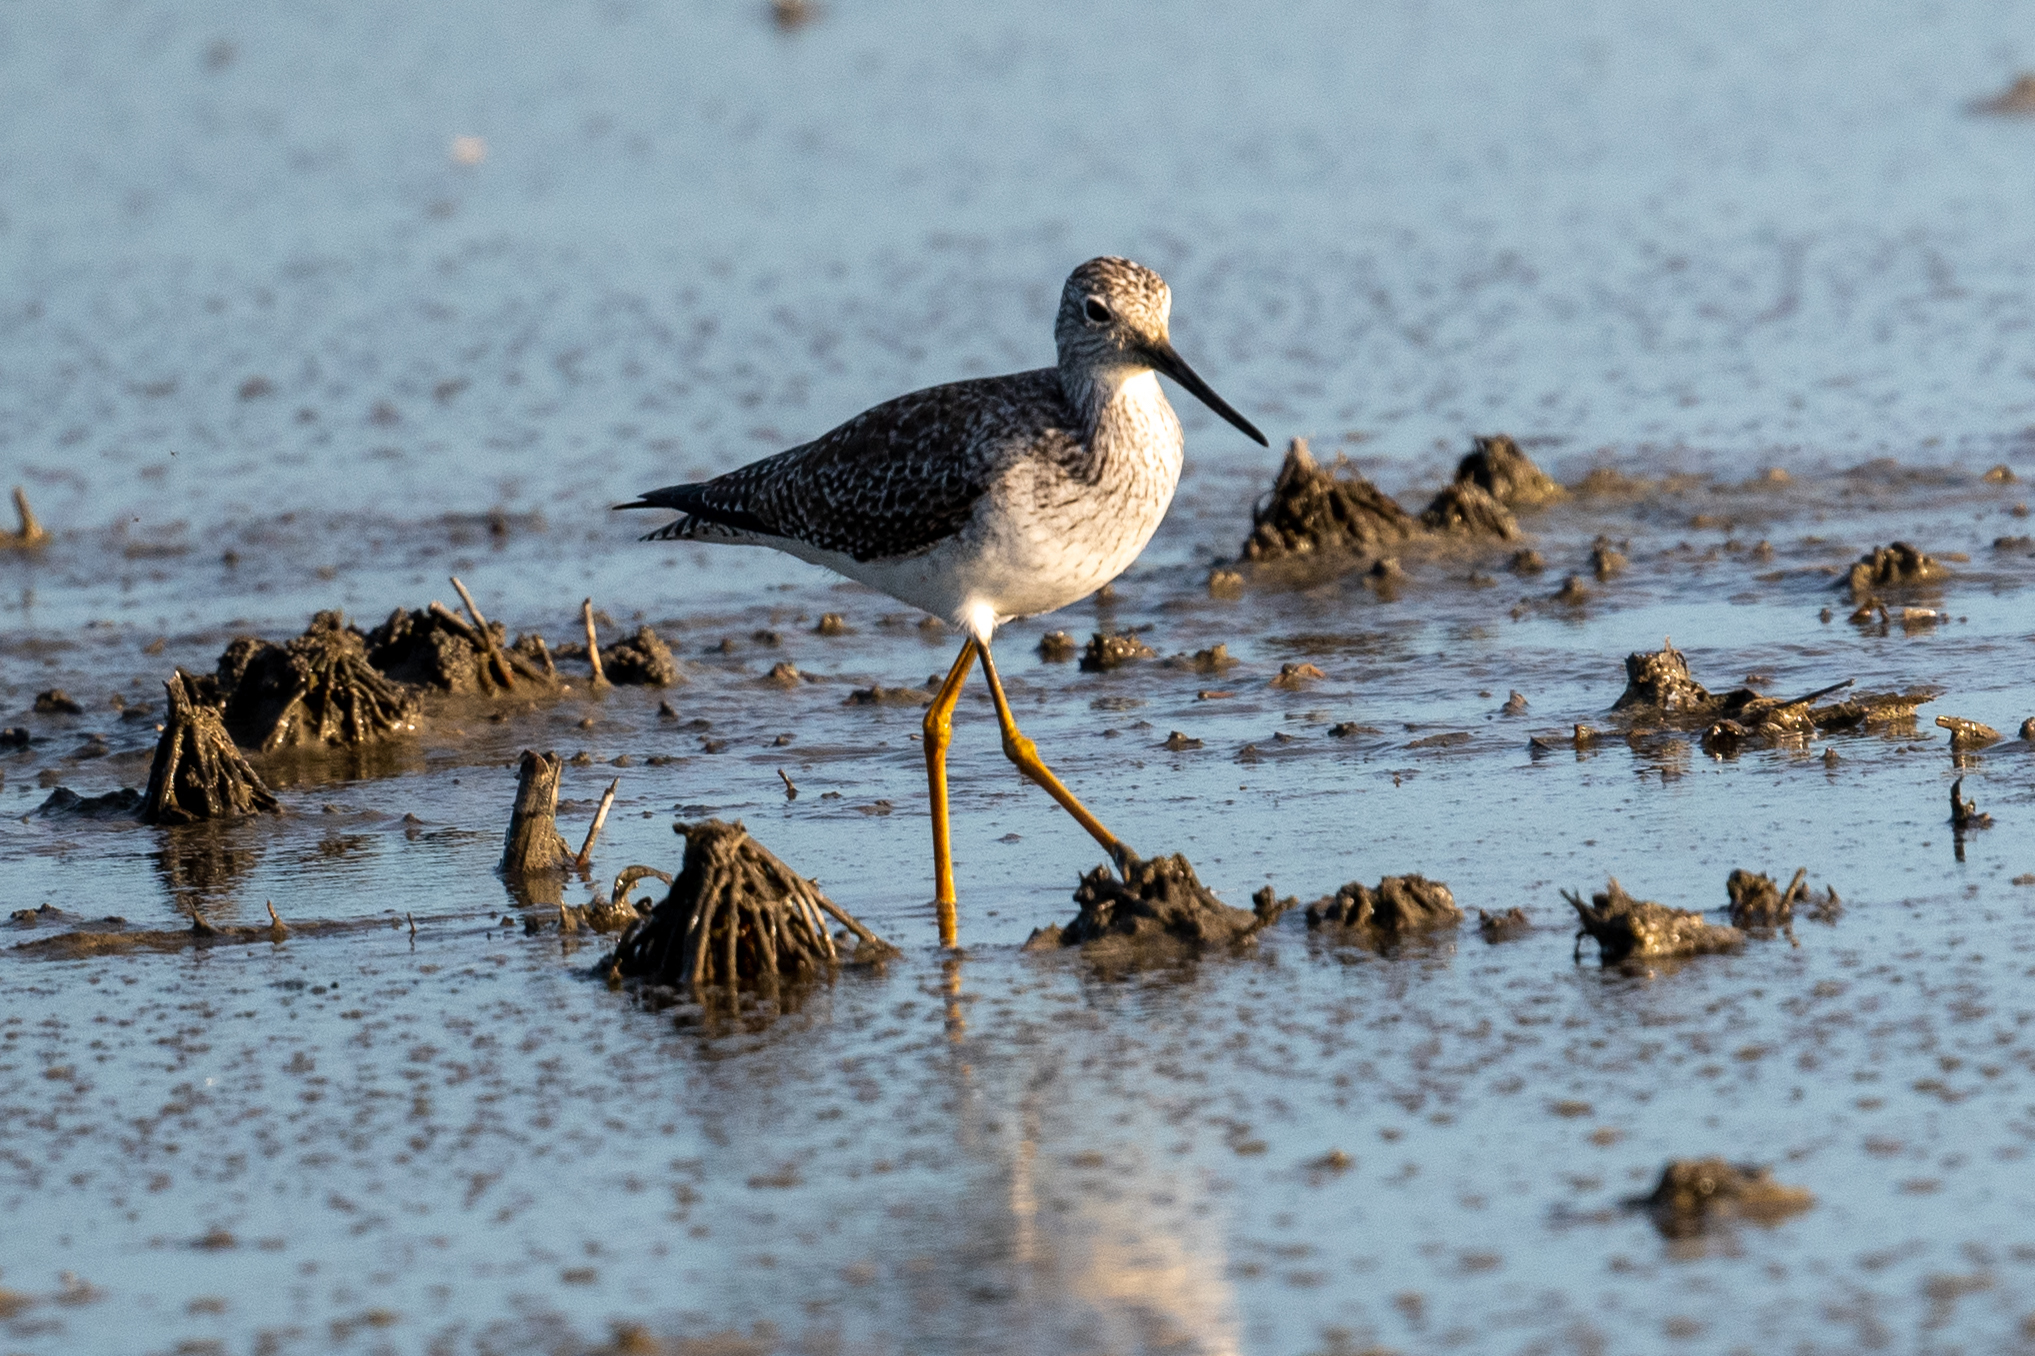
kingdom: Animalia
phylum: Chordata
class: Aves
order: Charadriiformes
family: Scolopacidae
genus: Tringa
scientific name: Tringa melanoleuca
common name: Greater yellowlegs
